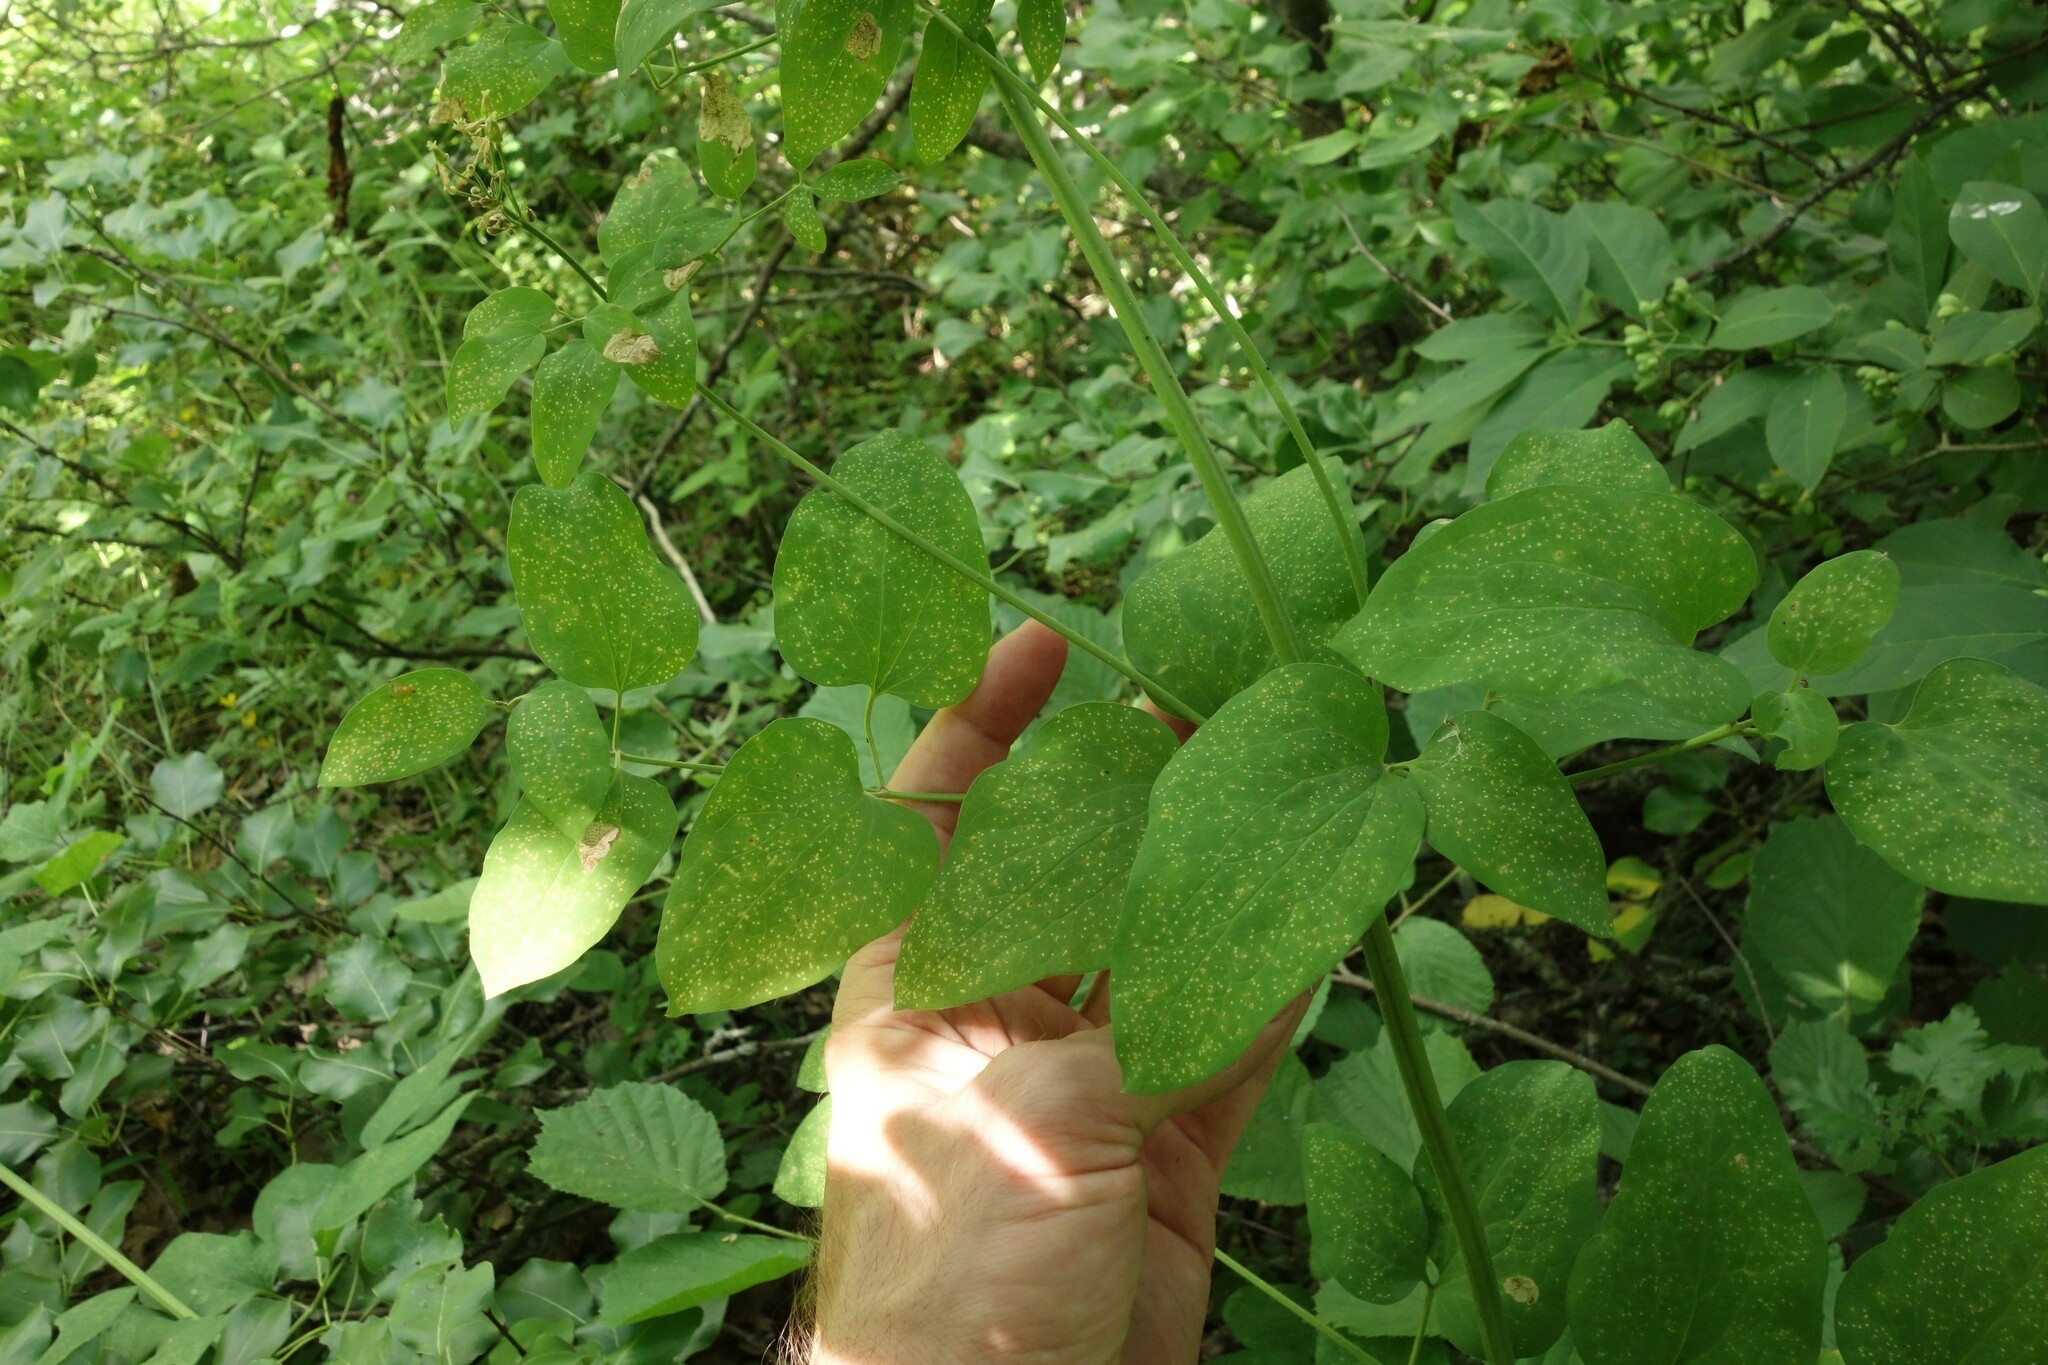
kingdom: Plantae
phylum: Tracheophyta
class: Magnoliopsida
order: Ranunculales
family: Ranunculaceae
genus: Clematis
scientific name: Clematis recta
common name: Ground clematis
